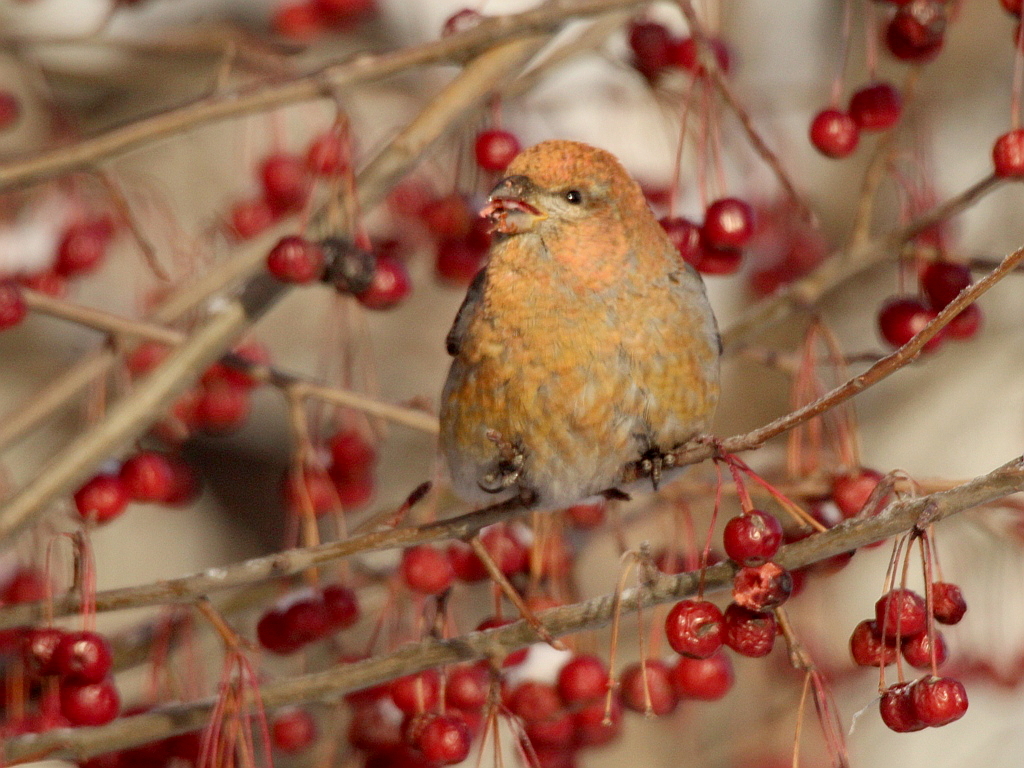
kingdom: Animalia
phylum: Chordata
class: Aves
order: Passeriformes
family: Fringillidae
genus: Pinicola
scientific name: Pinicola enucleator
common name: Pine grosbeak
